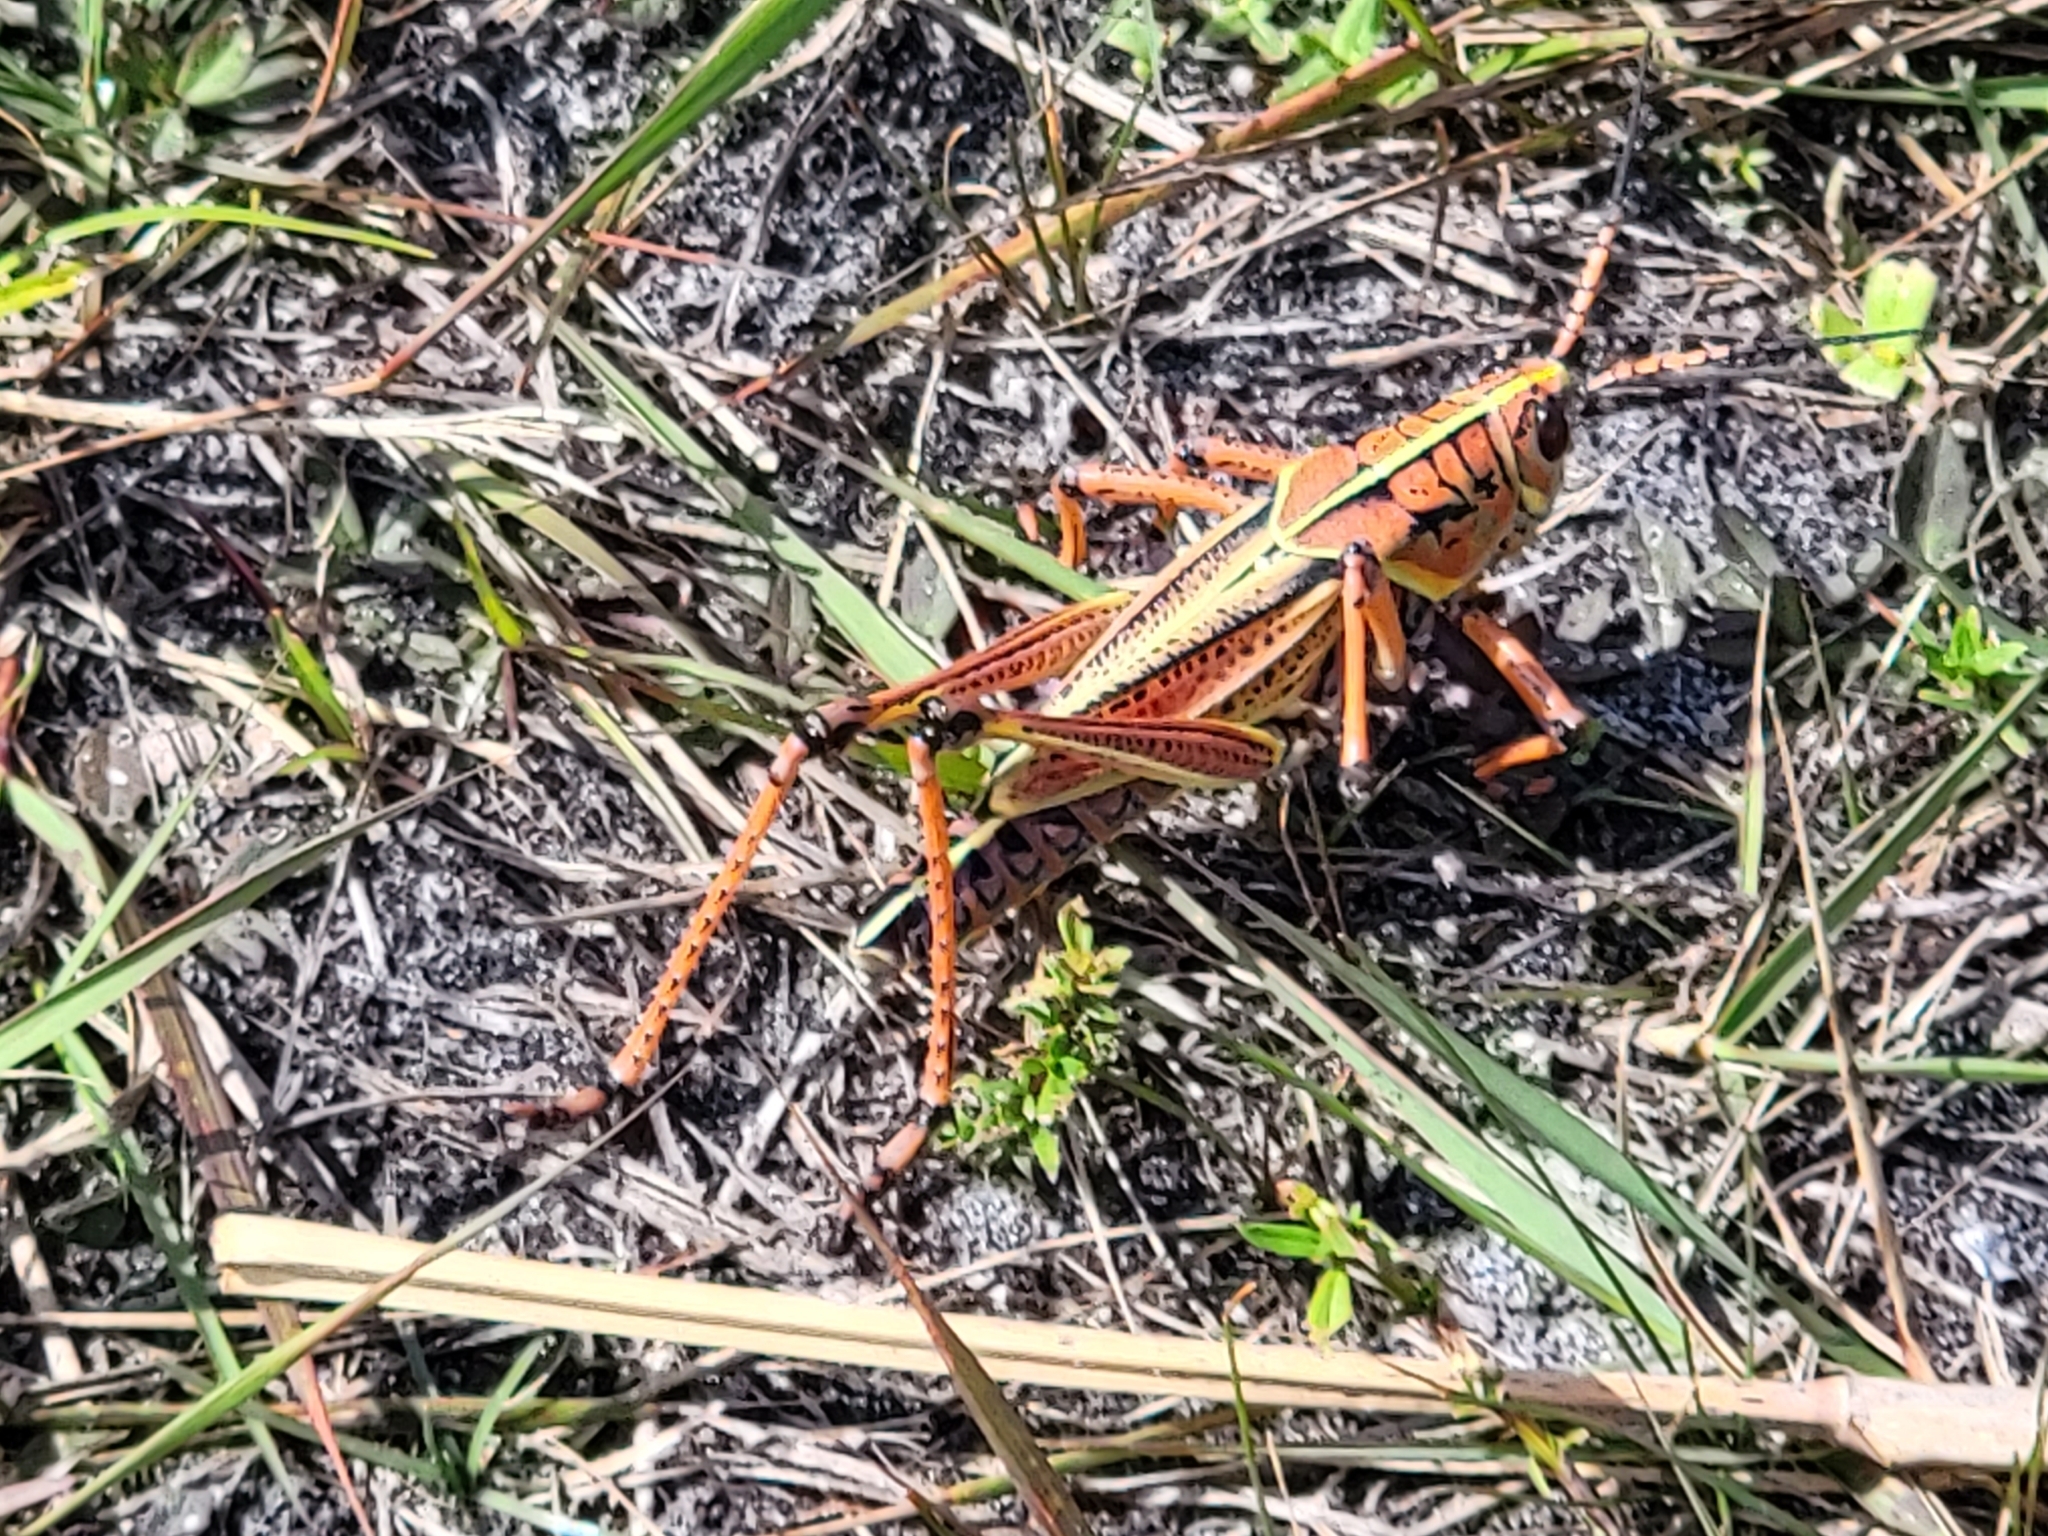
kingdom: Animalia
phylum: Arthropoda
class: Insecta
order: Orthoptera
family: Romaleidae
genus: Romalea
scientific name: Romalea microptera
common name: Eastern lubber grasshopper
